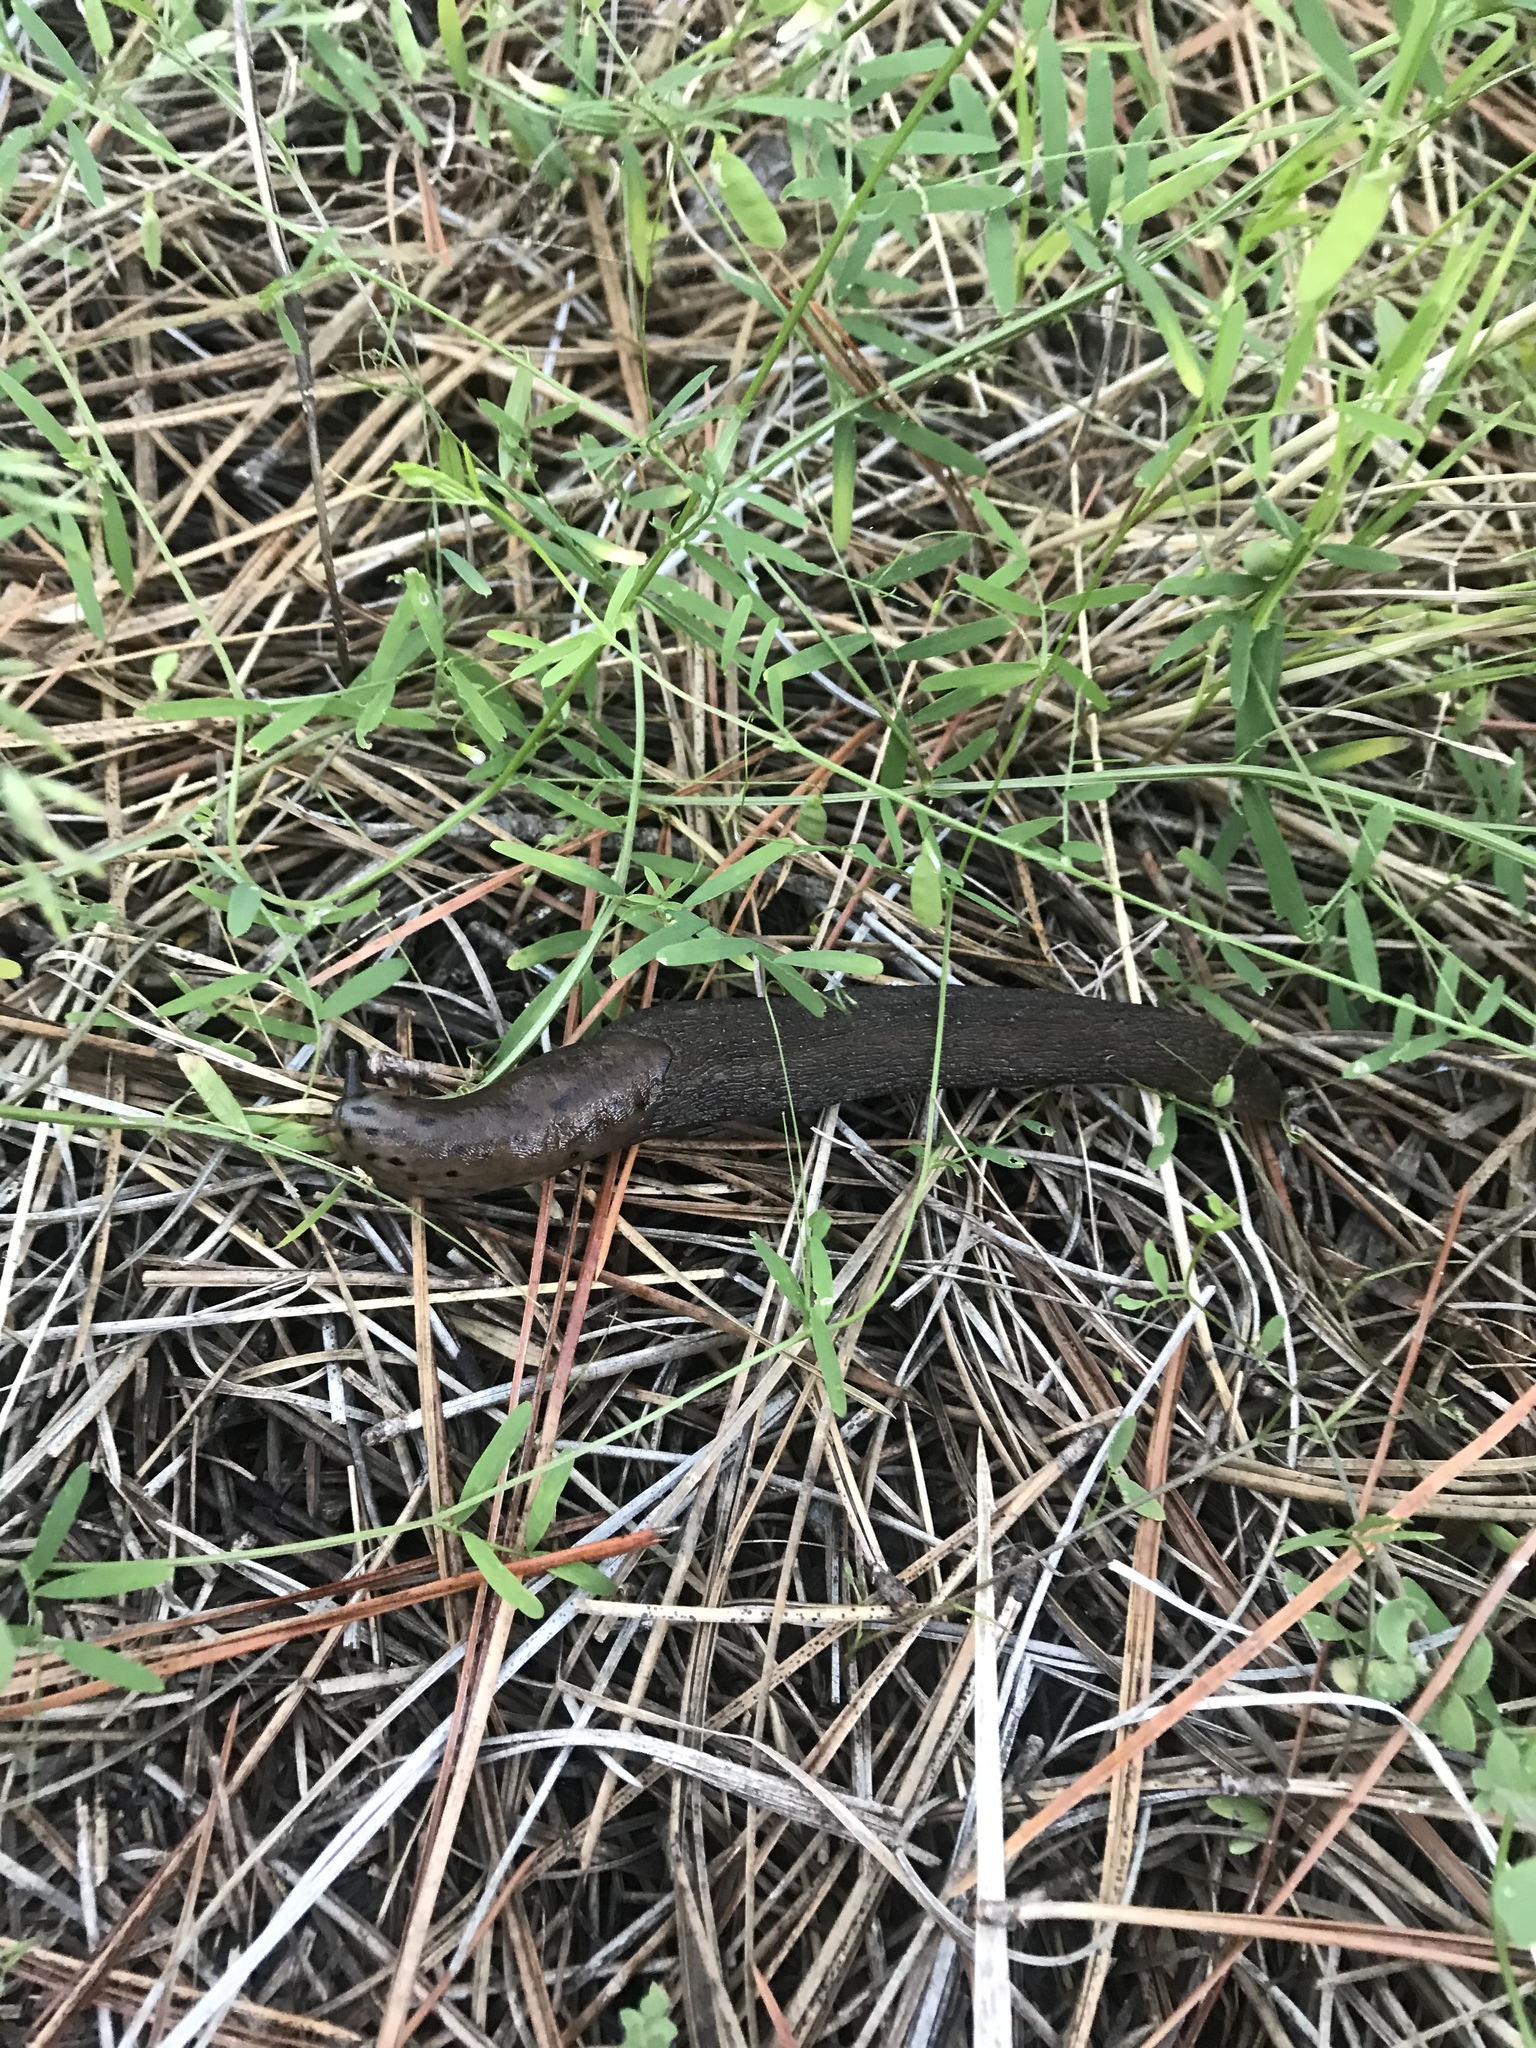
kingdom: Animalia
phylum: Mollusca
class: Gastropoda
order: Stylommatophora
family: Limacidae
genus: Limax
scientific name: Limax maximus
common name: Great grey slug
